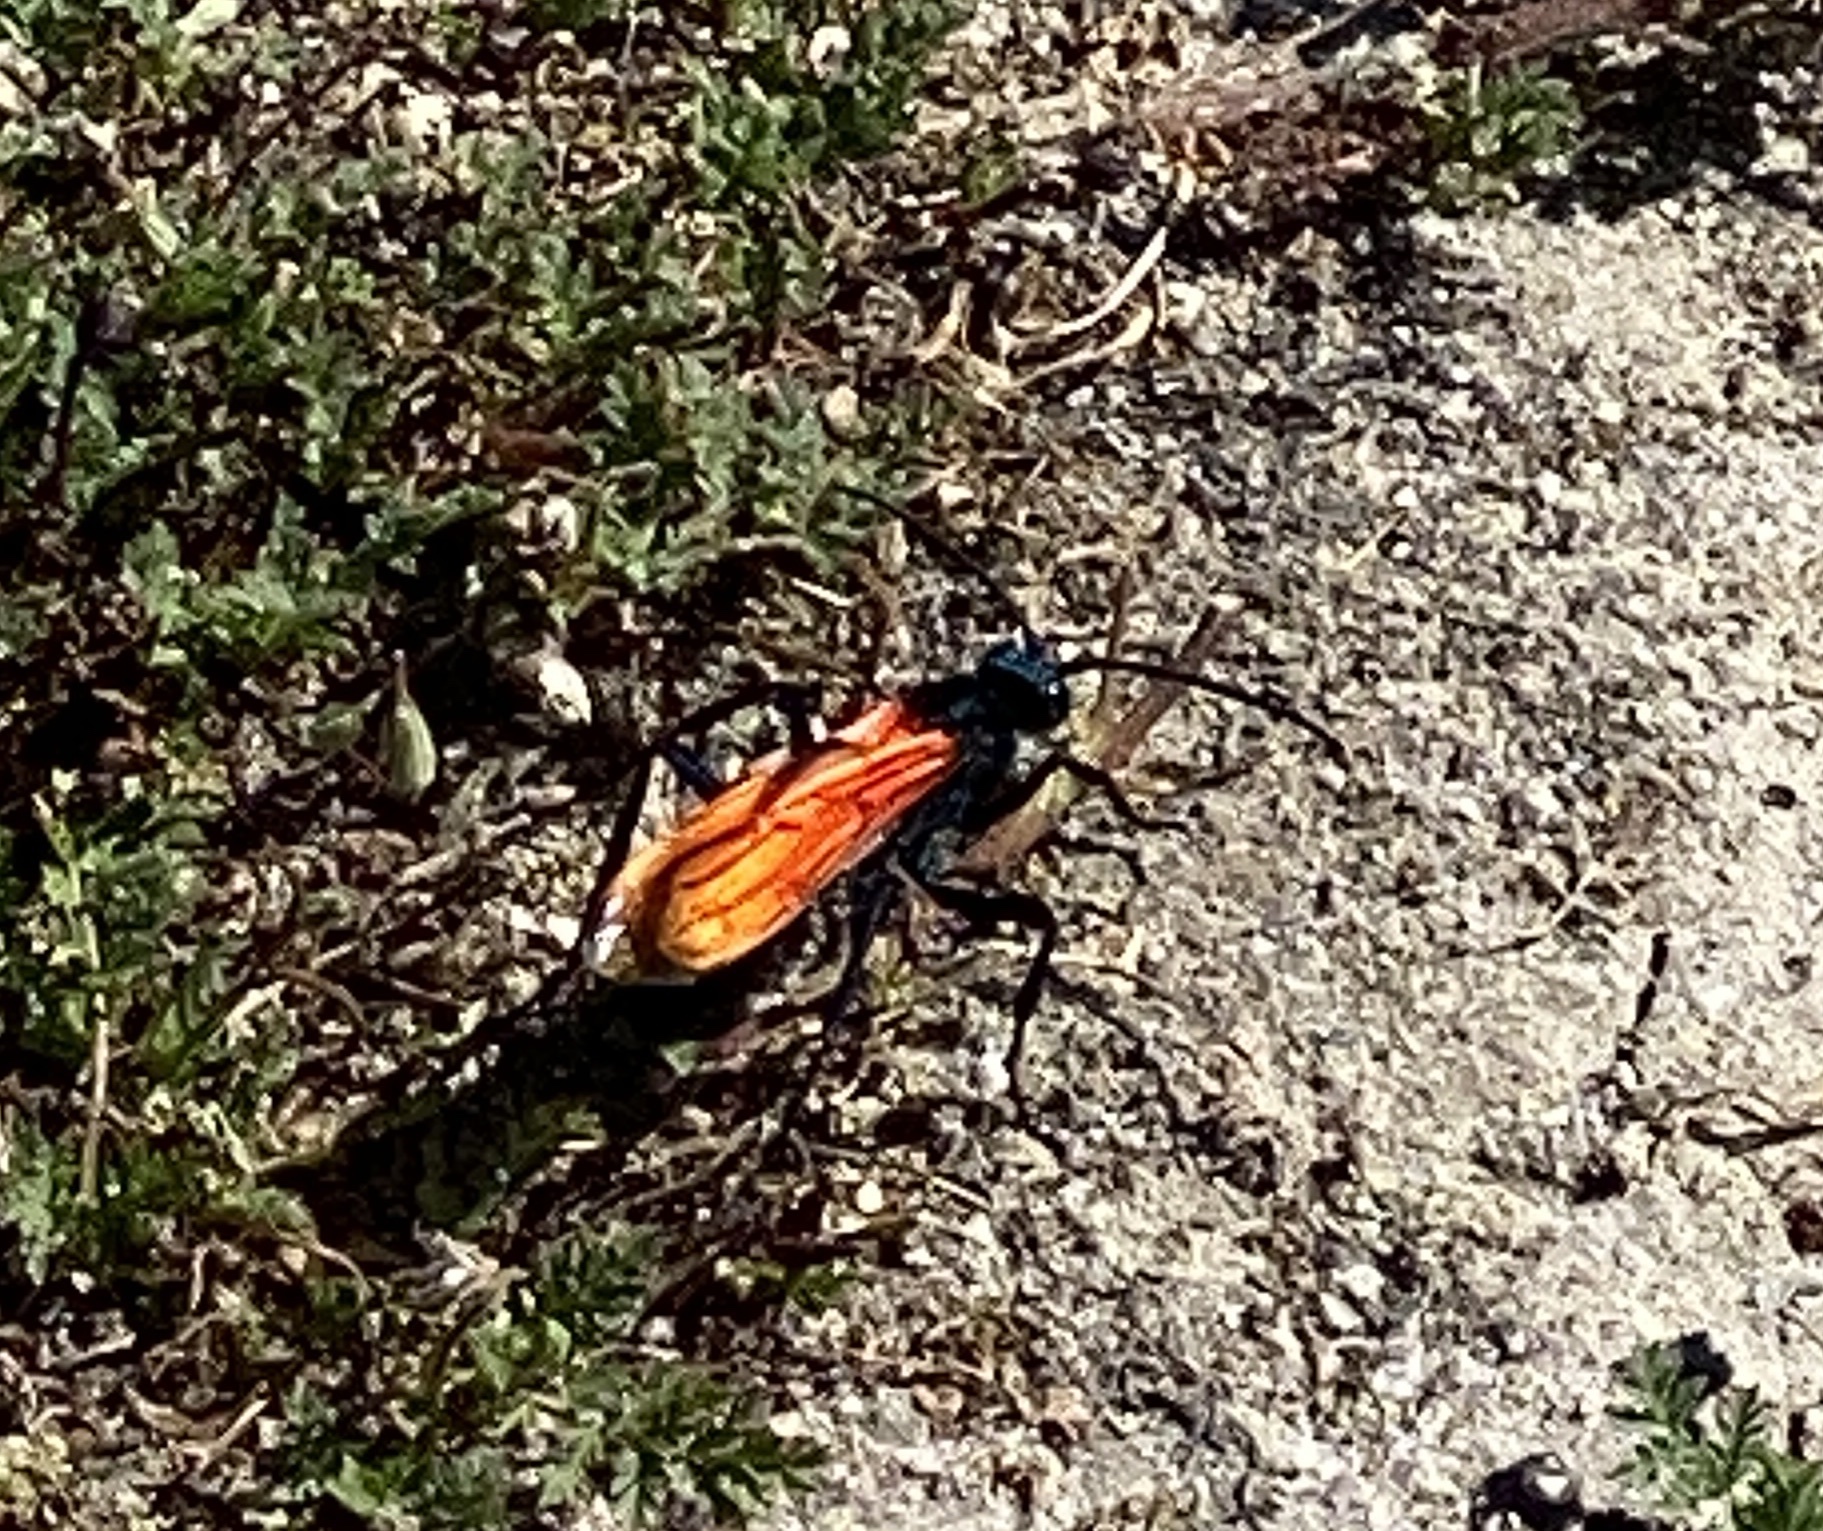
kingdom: Animalia
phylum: Arthropoda
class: Insecta
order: Hymenoptera
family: Pompilidae
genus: Pepsis
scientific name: Pepsis thisbe
